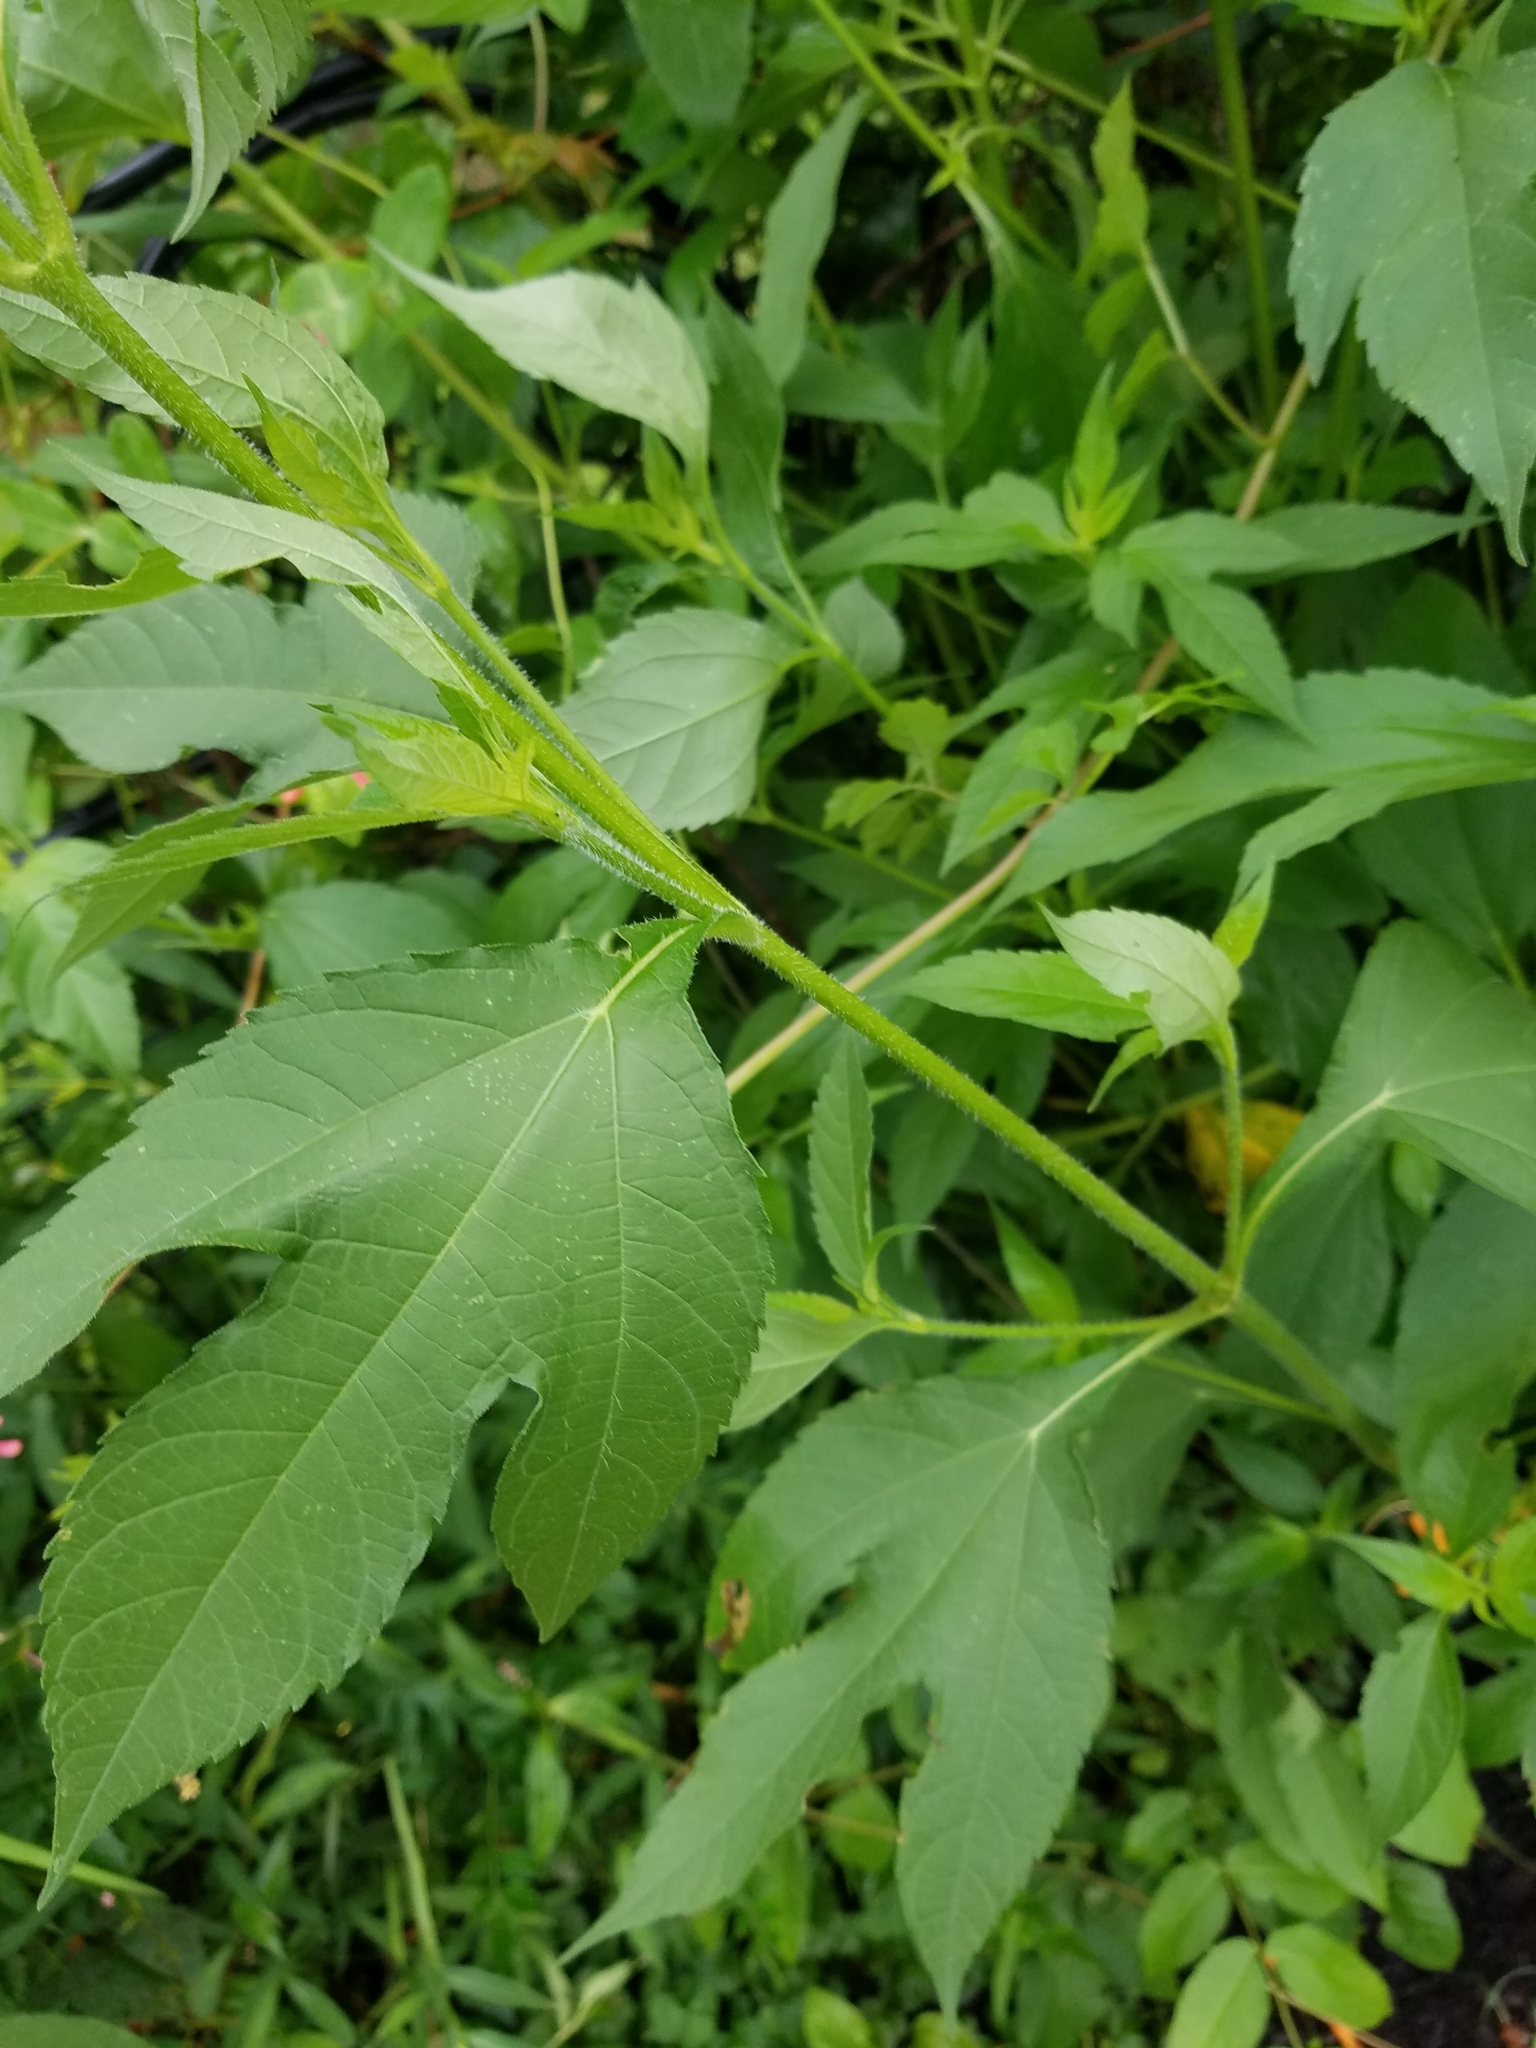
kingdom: Plantae
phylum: Tracheophyta
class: Magnoliopsida
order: Asterales
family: Asteraceae
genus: Ambrosia
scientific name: Ambrosia trifida
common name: Giant ragweed
